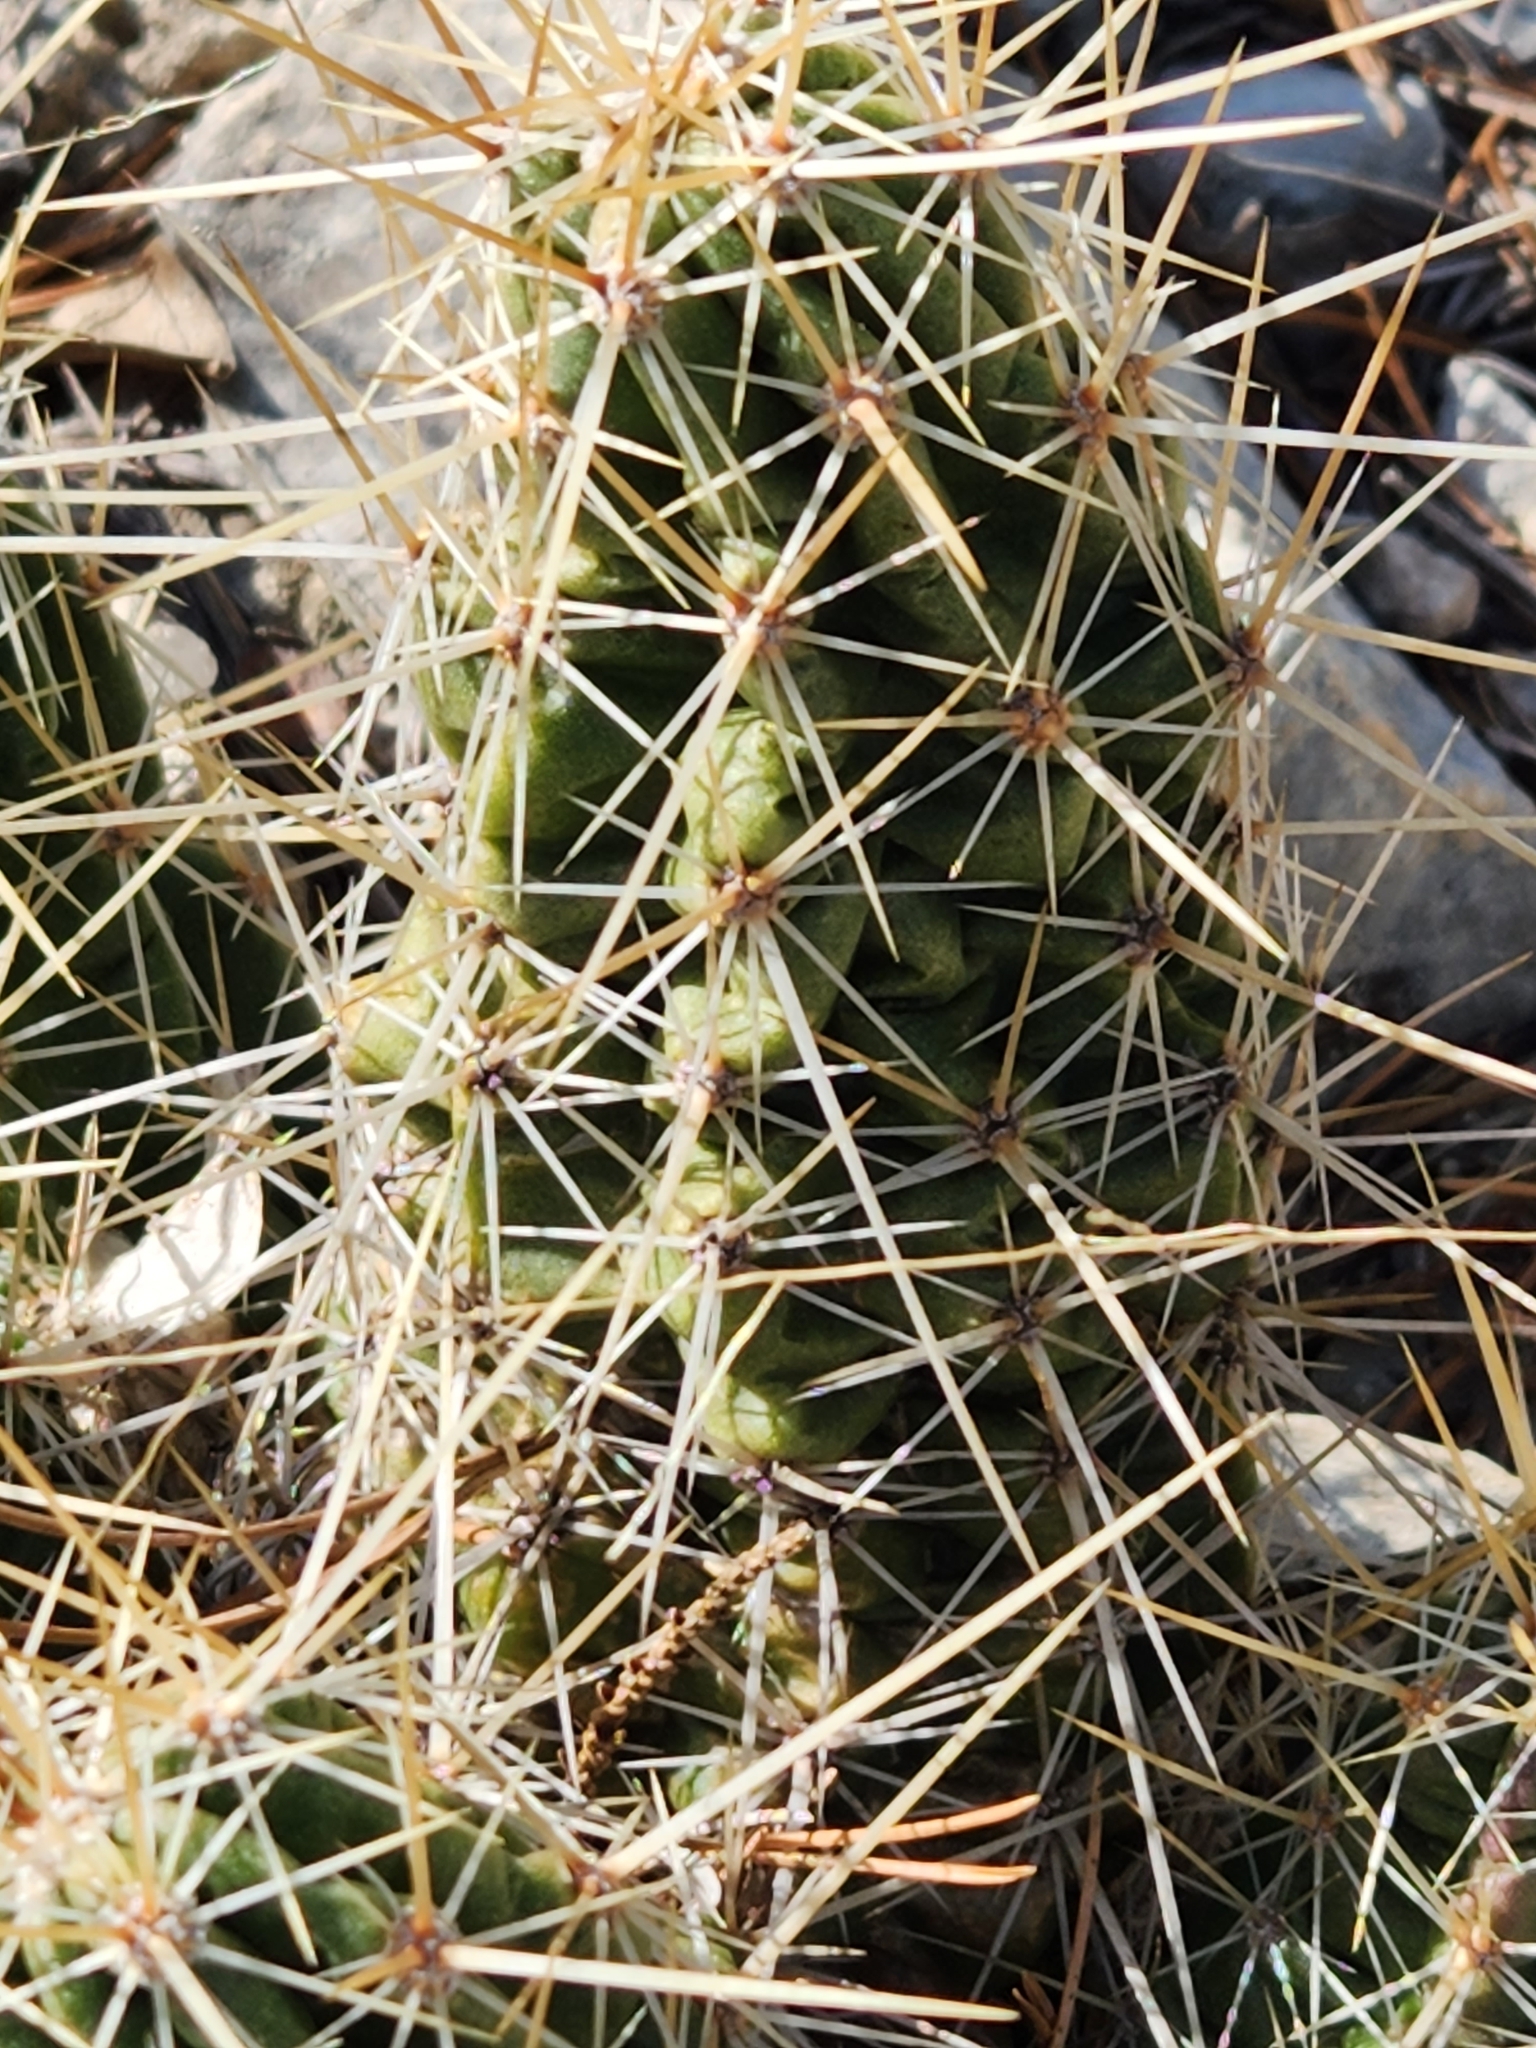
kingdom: Plantae
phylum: Tracheophyta
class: Magnoliopsida
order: Caryophyllales
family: Cactaceae
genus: Echinocereus
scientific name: Echinocereus enneacanthus
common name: Pitaya
